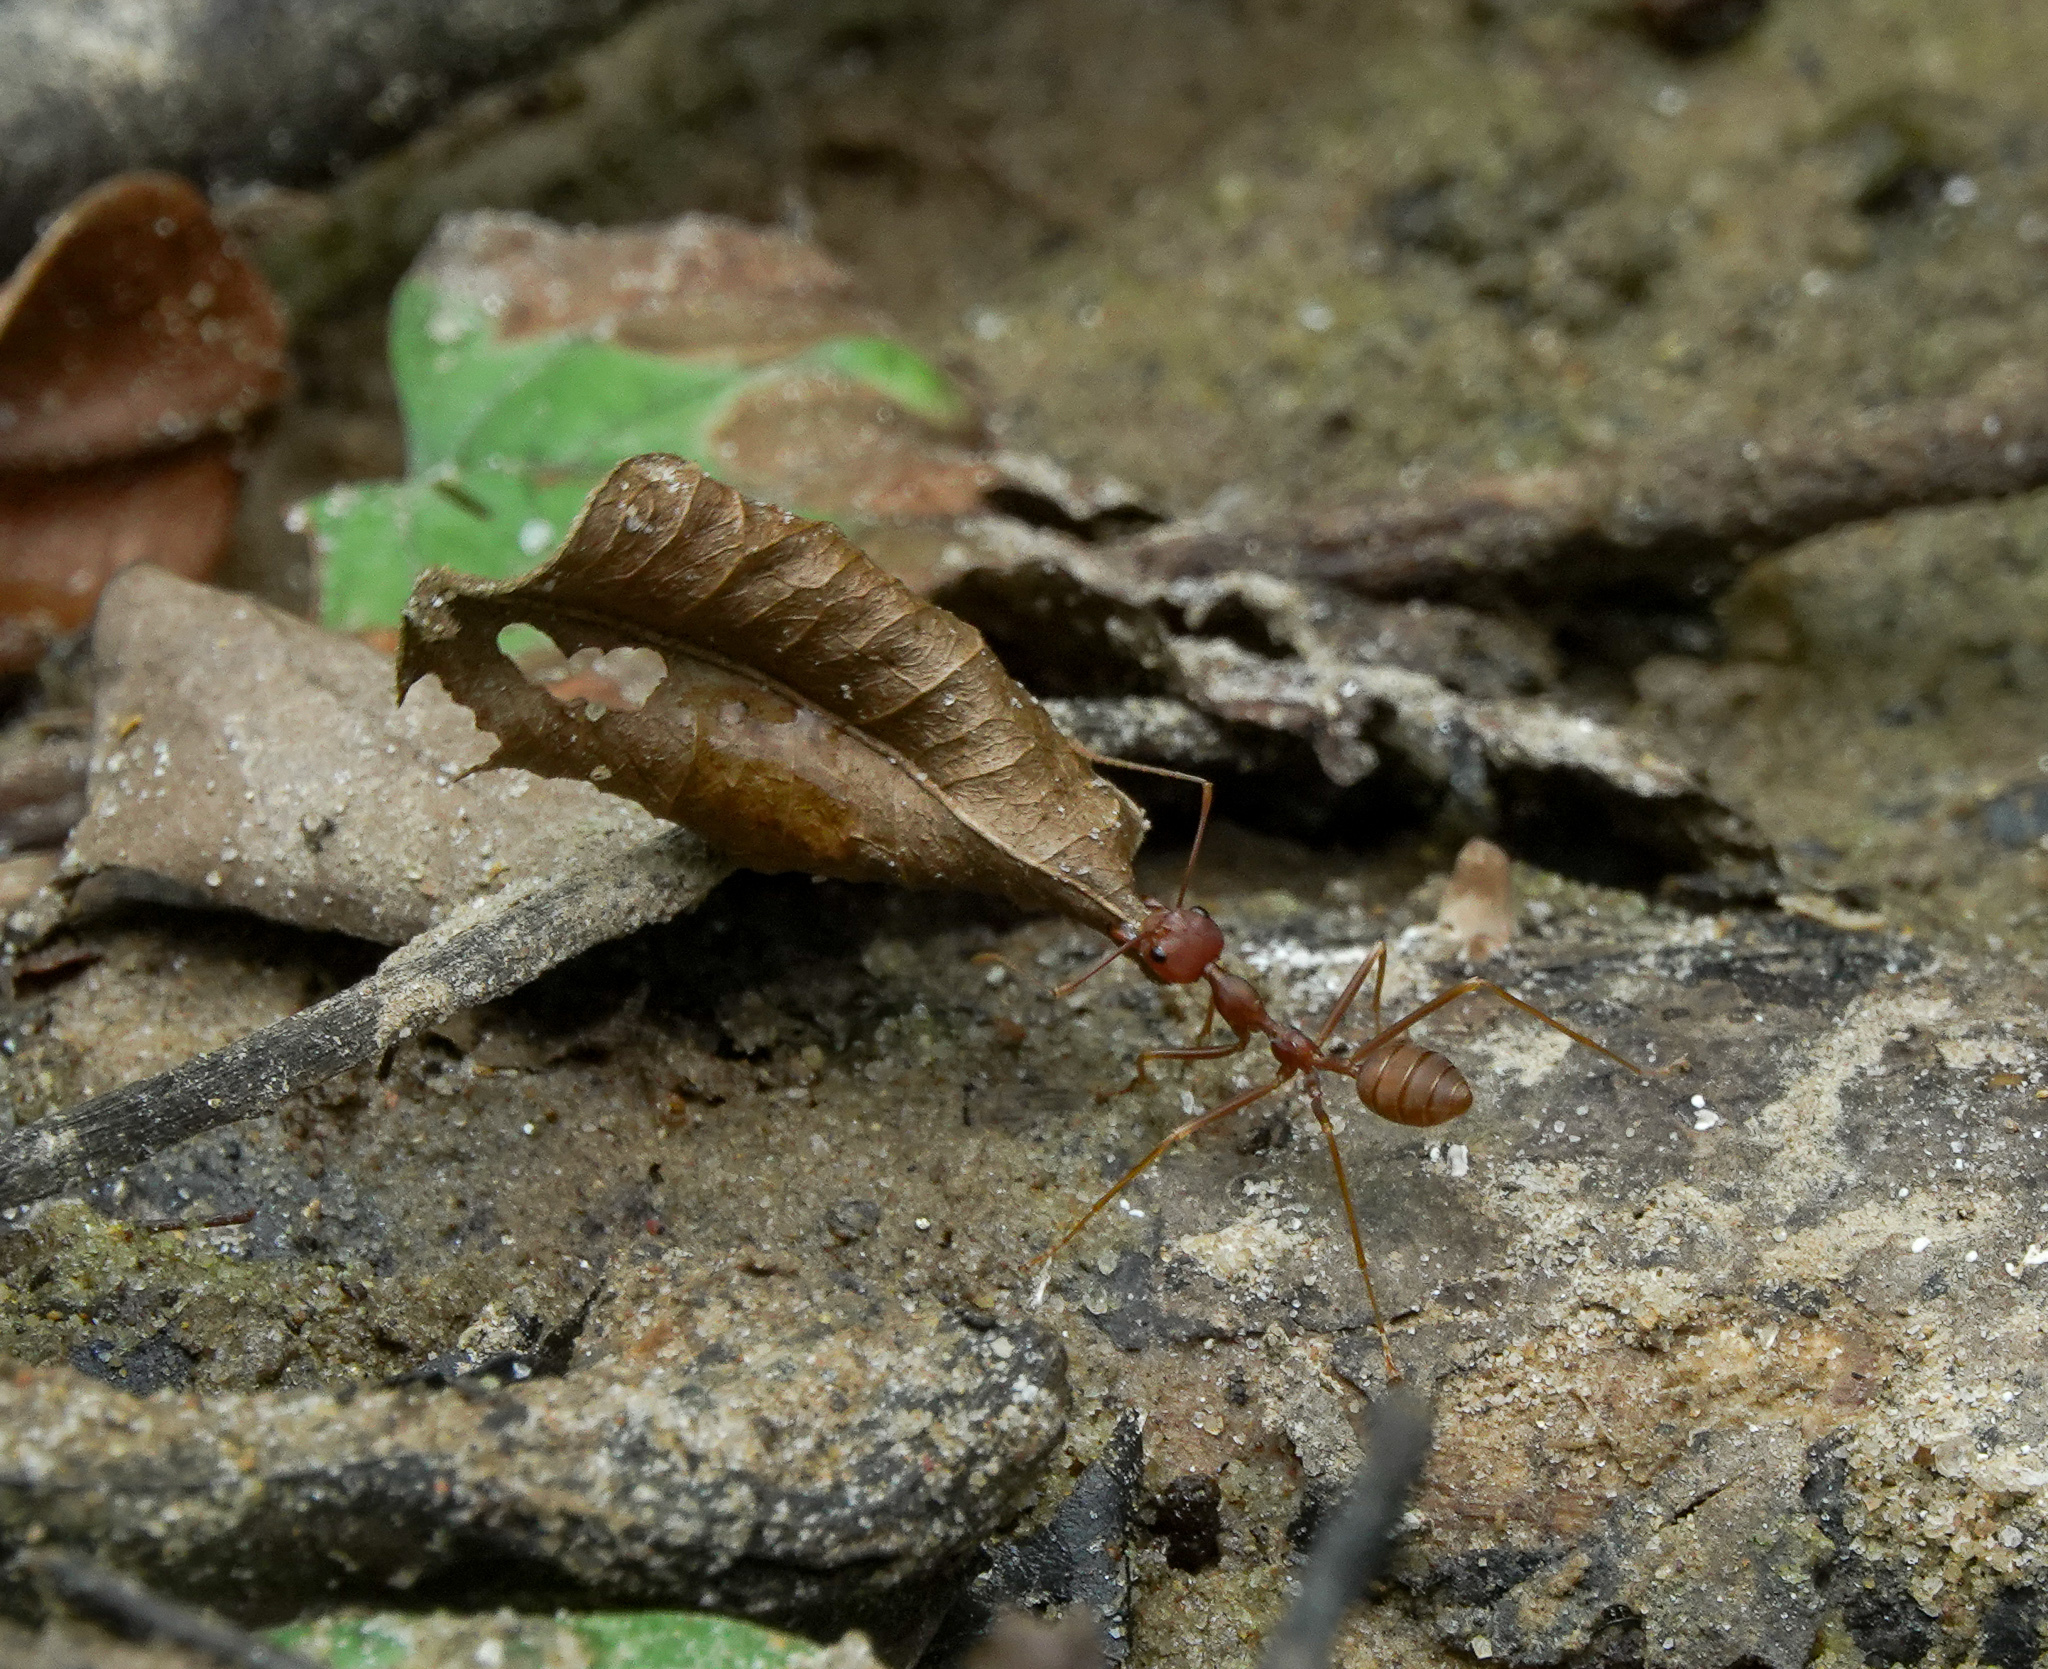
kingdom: Animalia
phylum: Arthropoda
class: Insecta
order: Hymenoptera
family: Formicidae
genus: Oecophylla
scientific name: Oecophylla smaragdina
